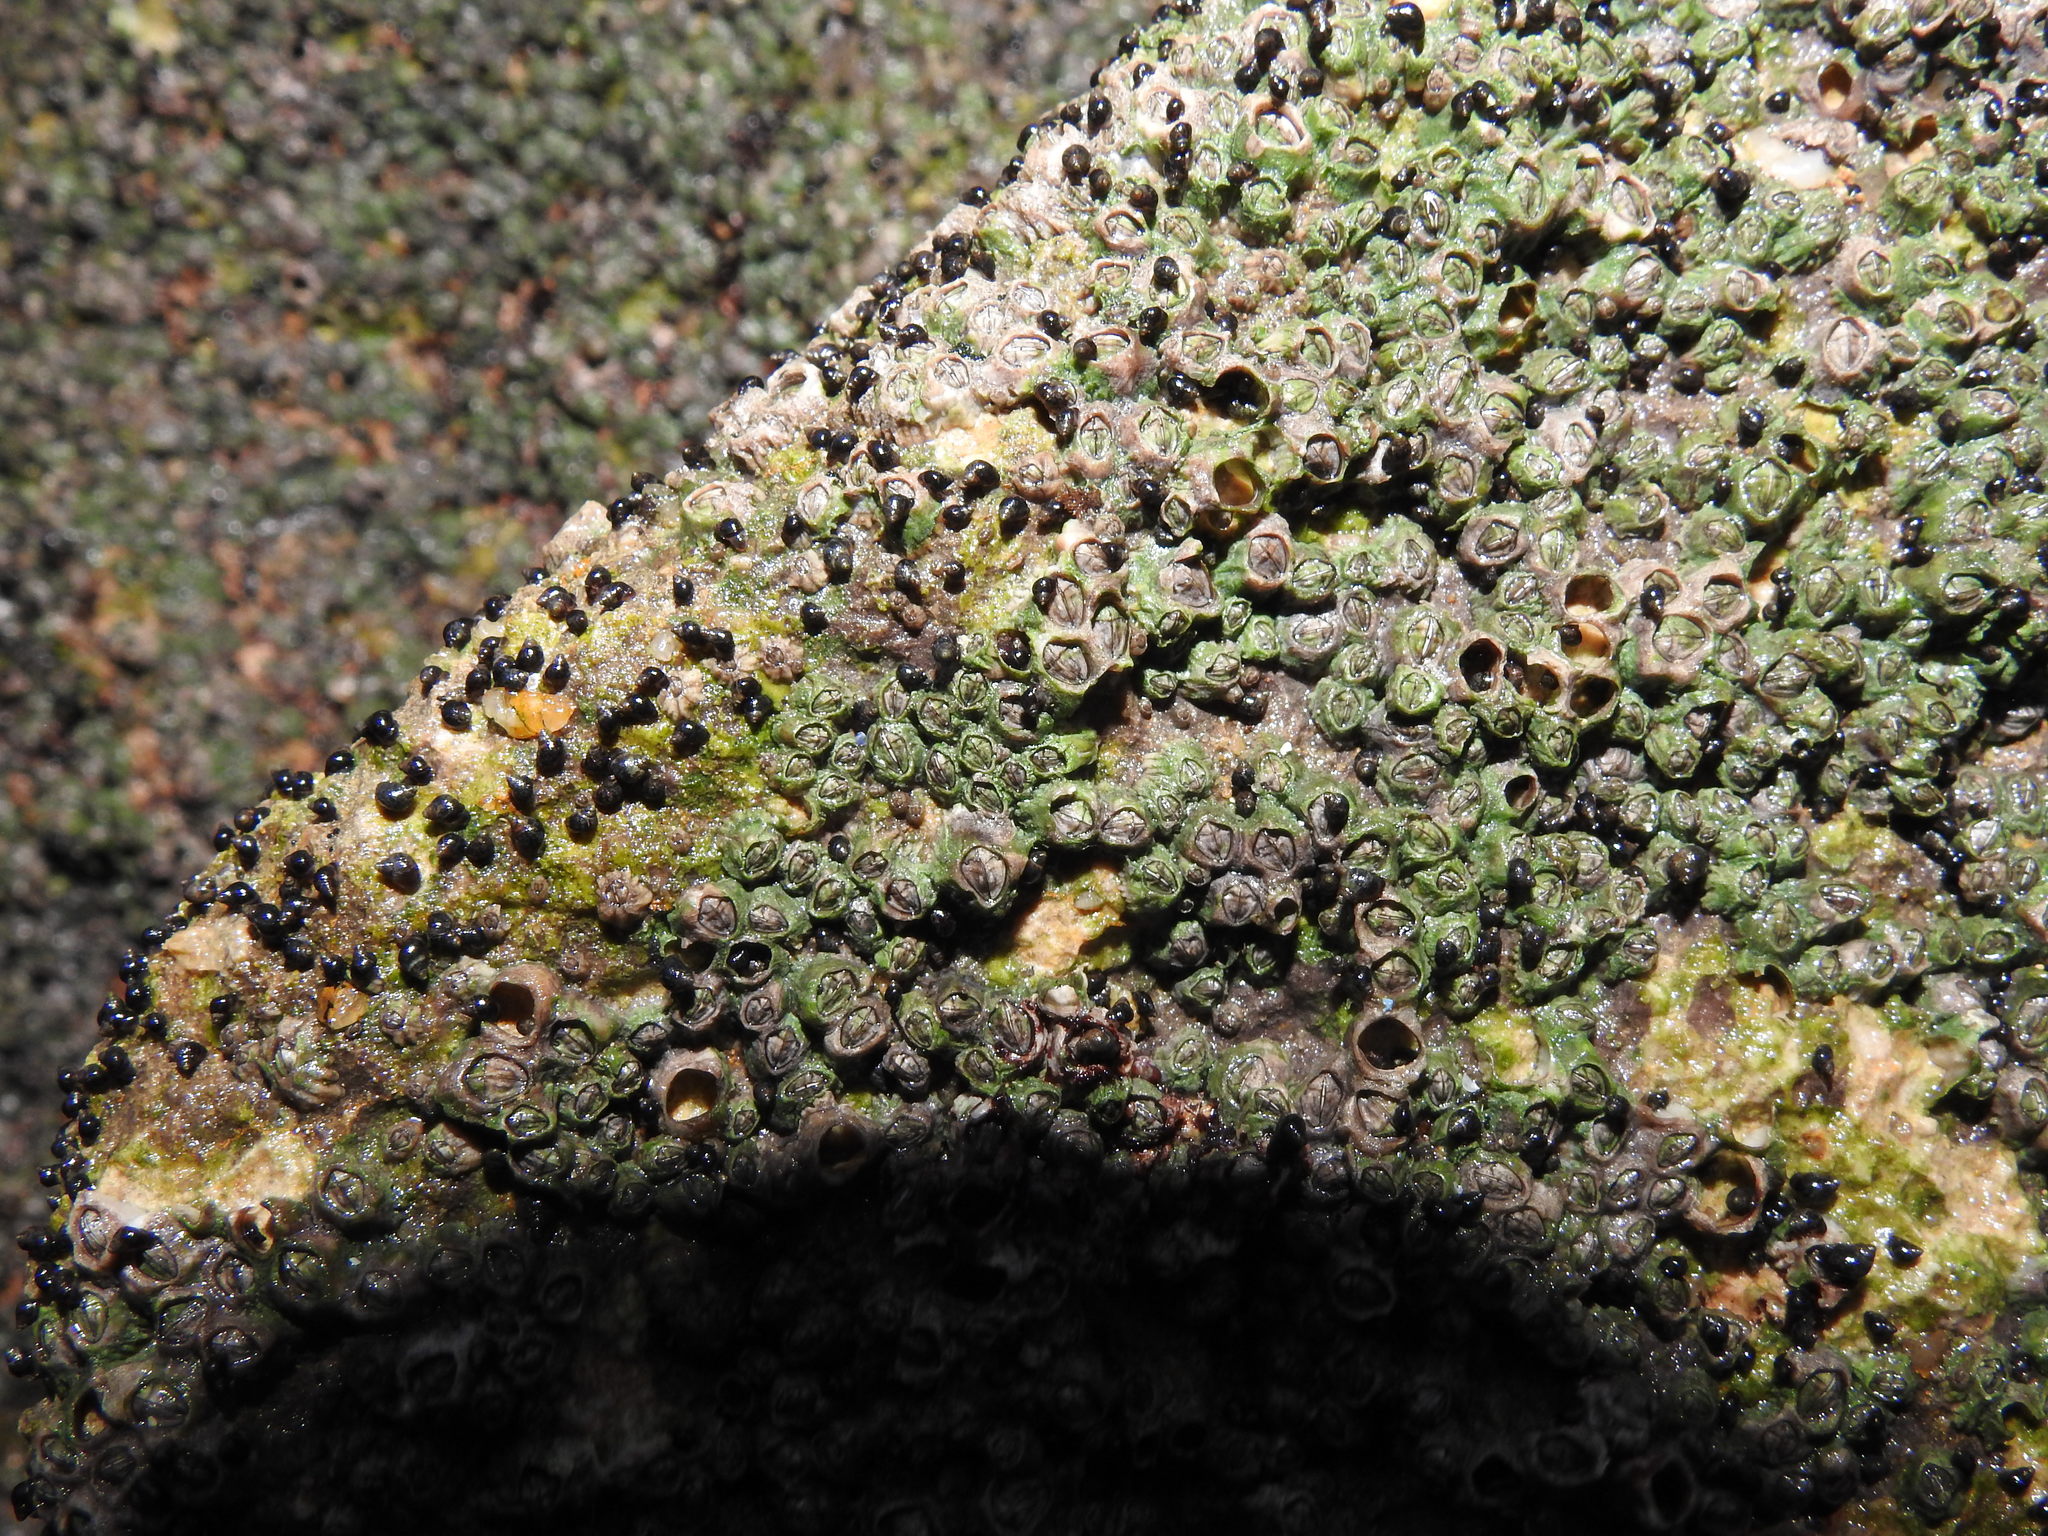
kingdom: Animalia
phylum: Mollusca
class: Gastropoda
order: Littorinimorpha
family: Littorinidae
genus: Melarhaphe
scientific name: Melarhaphe neritoides
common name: Small periwinkle
